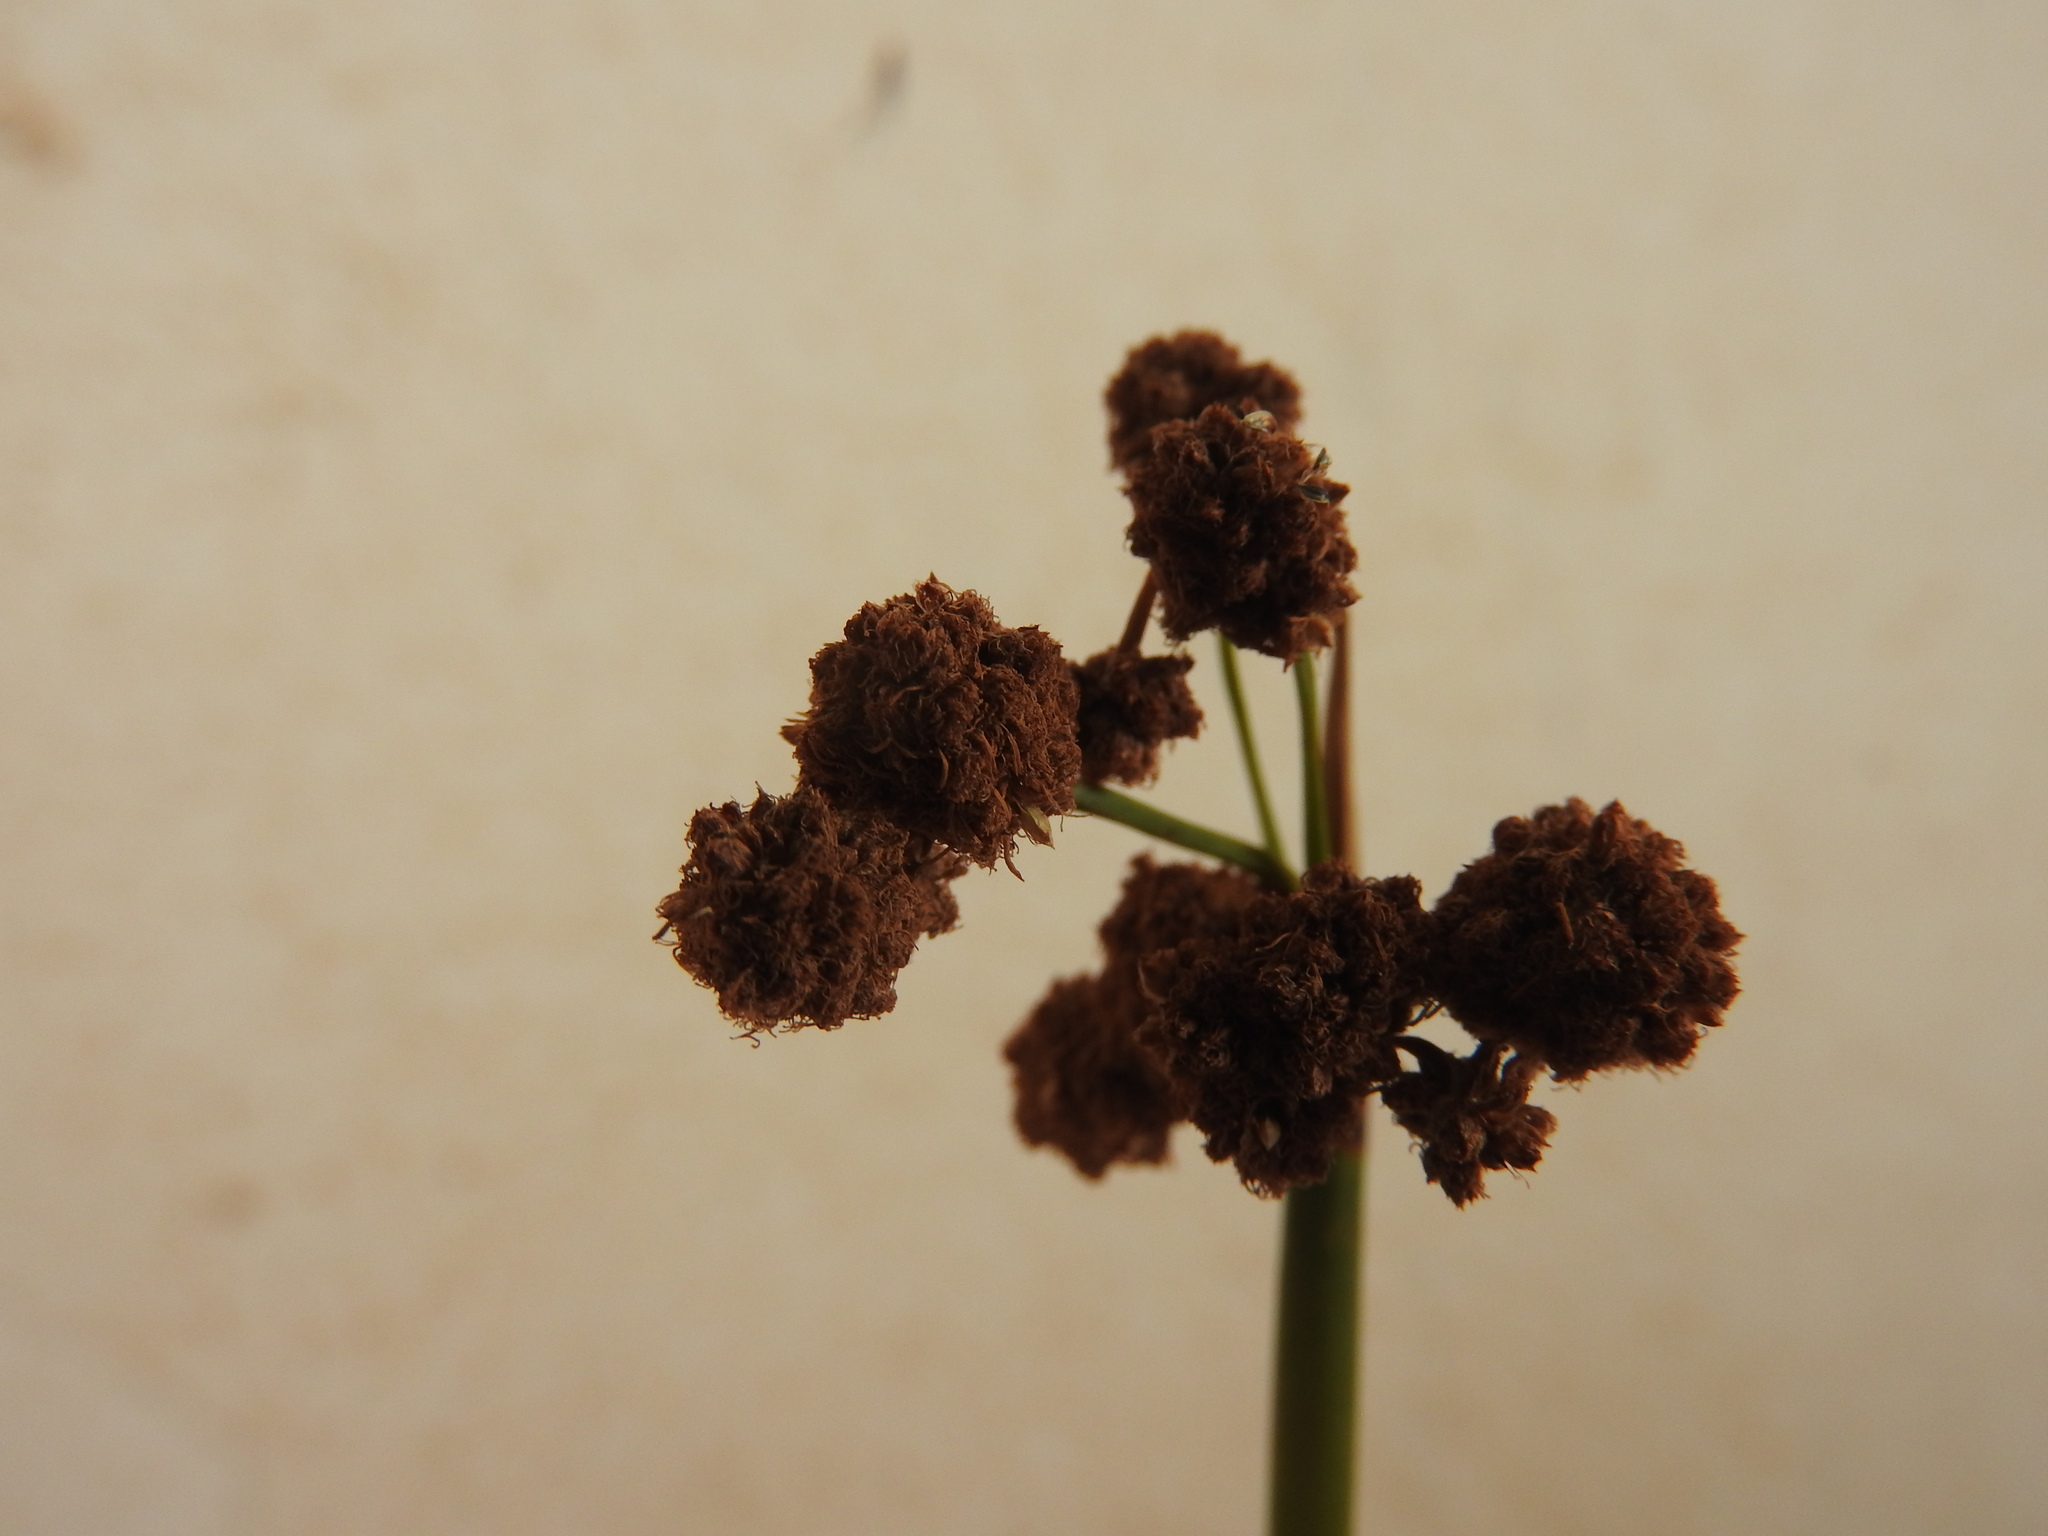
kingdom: Plantae
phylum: Tracheophyta
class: Liliopsida
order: Poales
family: Cyperaceae
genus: Scirpoides
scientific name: Scirpoides holoschoenus
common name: Round-headed club-rush
